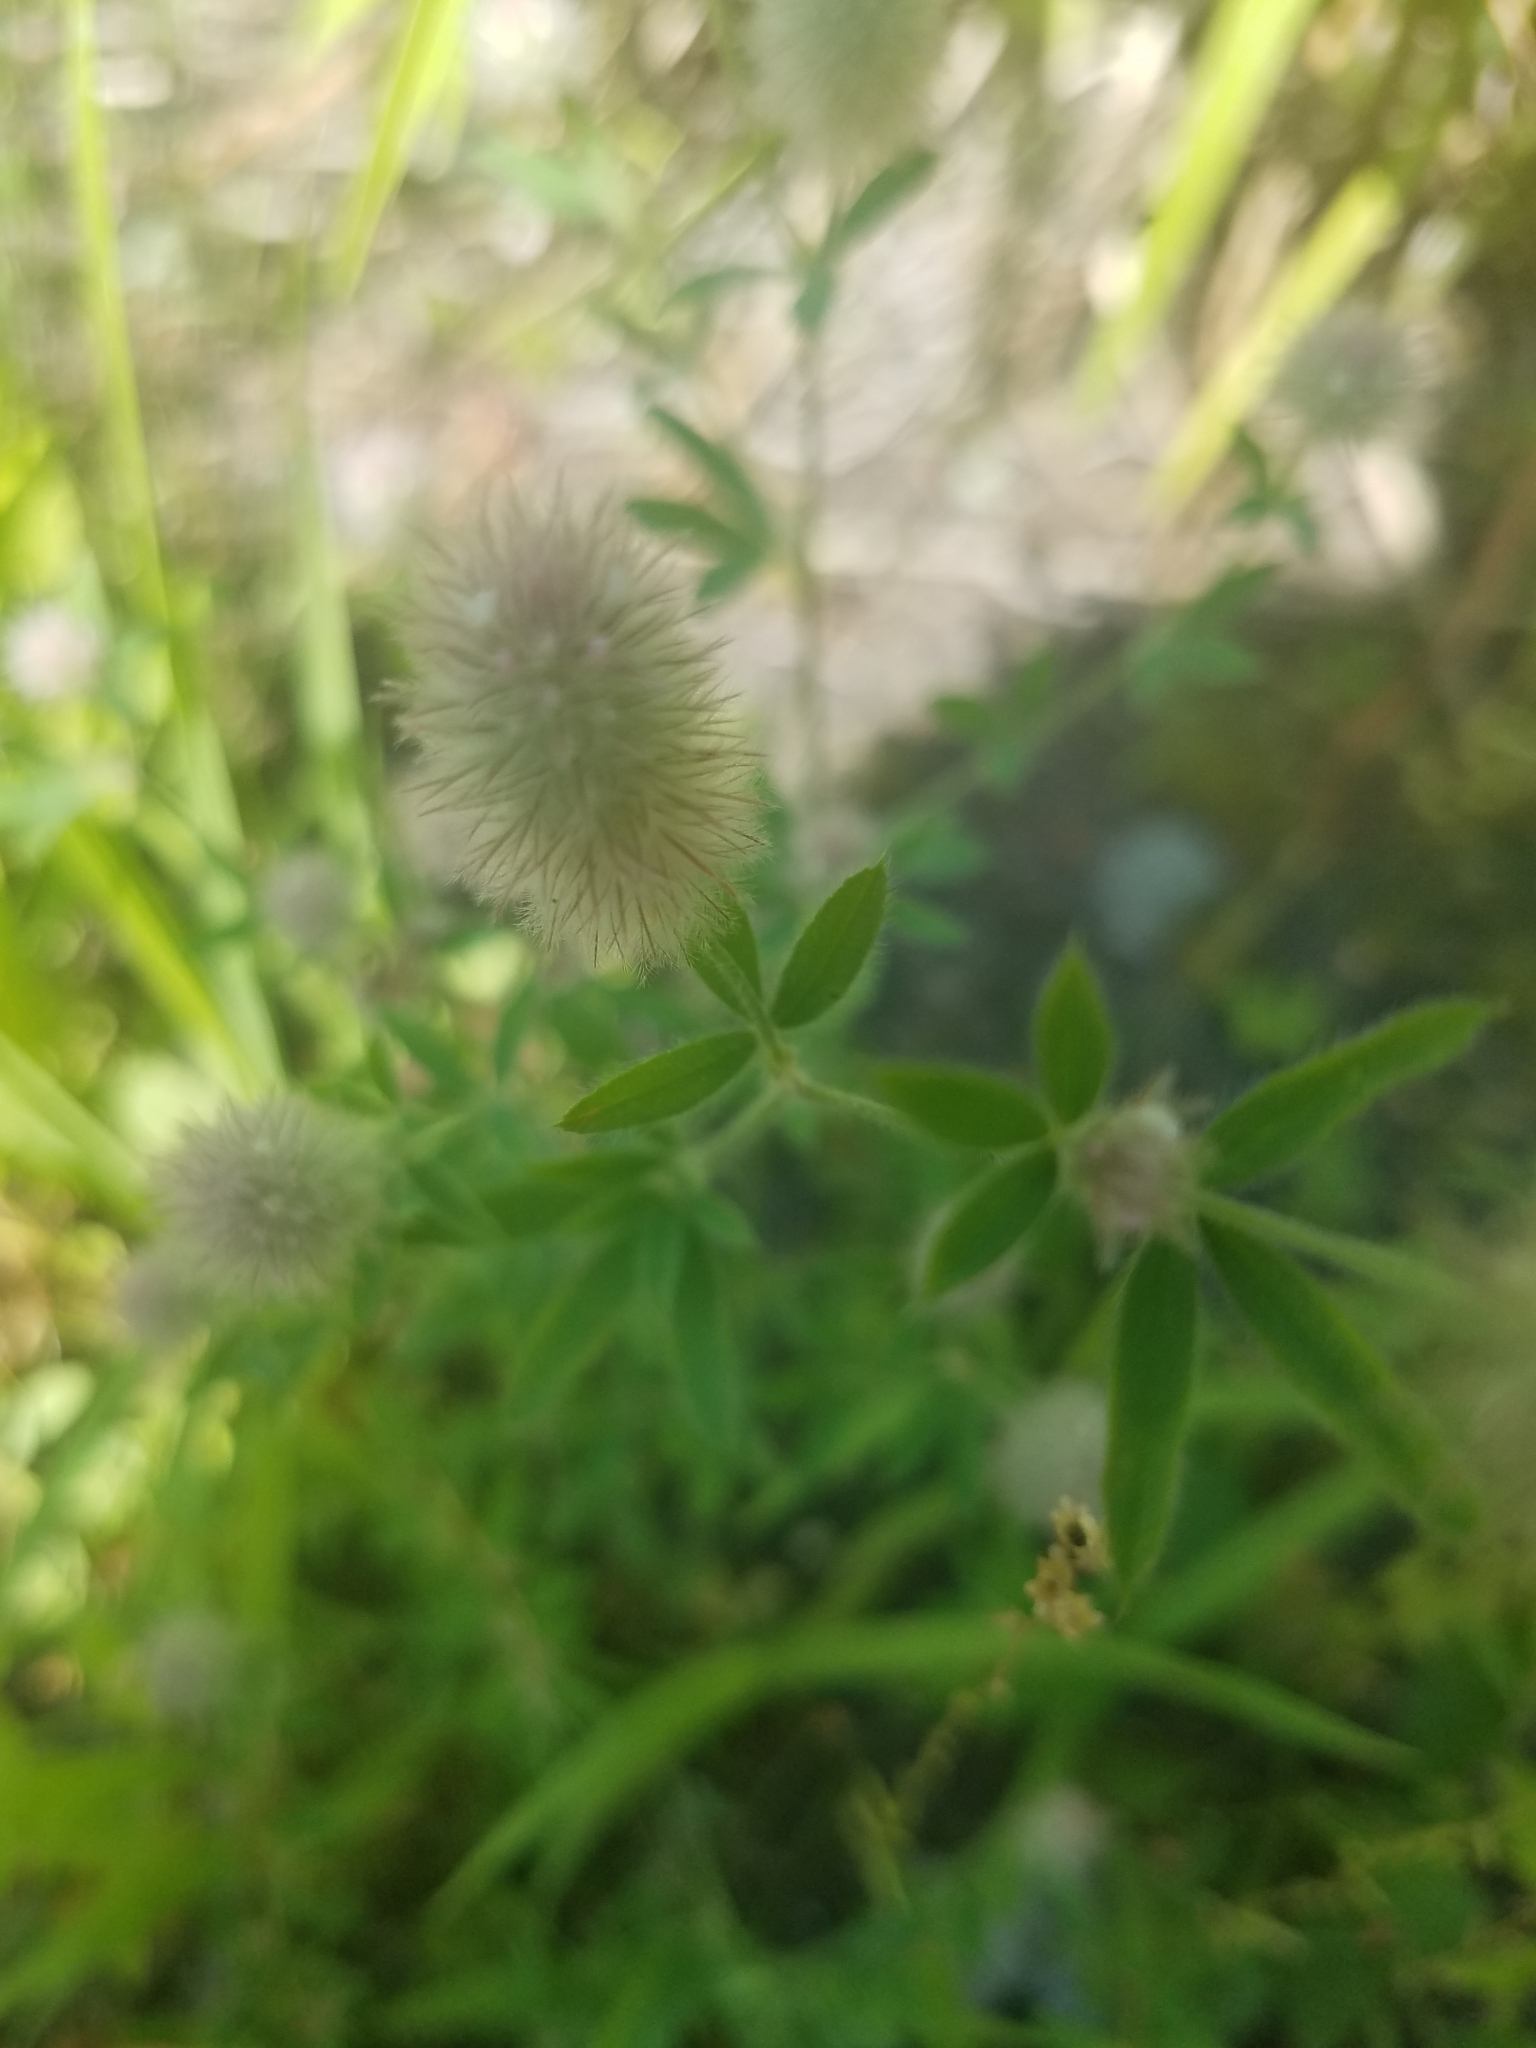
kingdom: Plantae
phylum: Tracheophyta
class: Magnoliopsida
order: Fabales
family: Fabaceae
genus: Trifolium
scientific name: Trifolium arvense
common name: Hare's-foot clover
